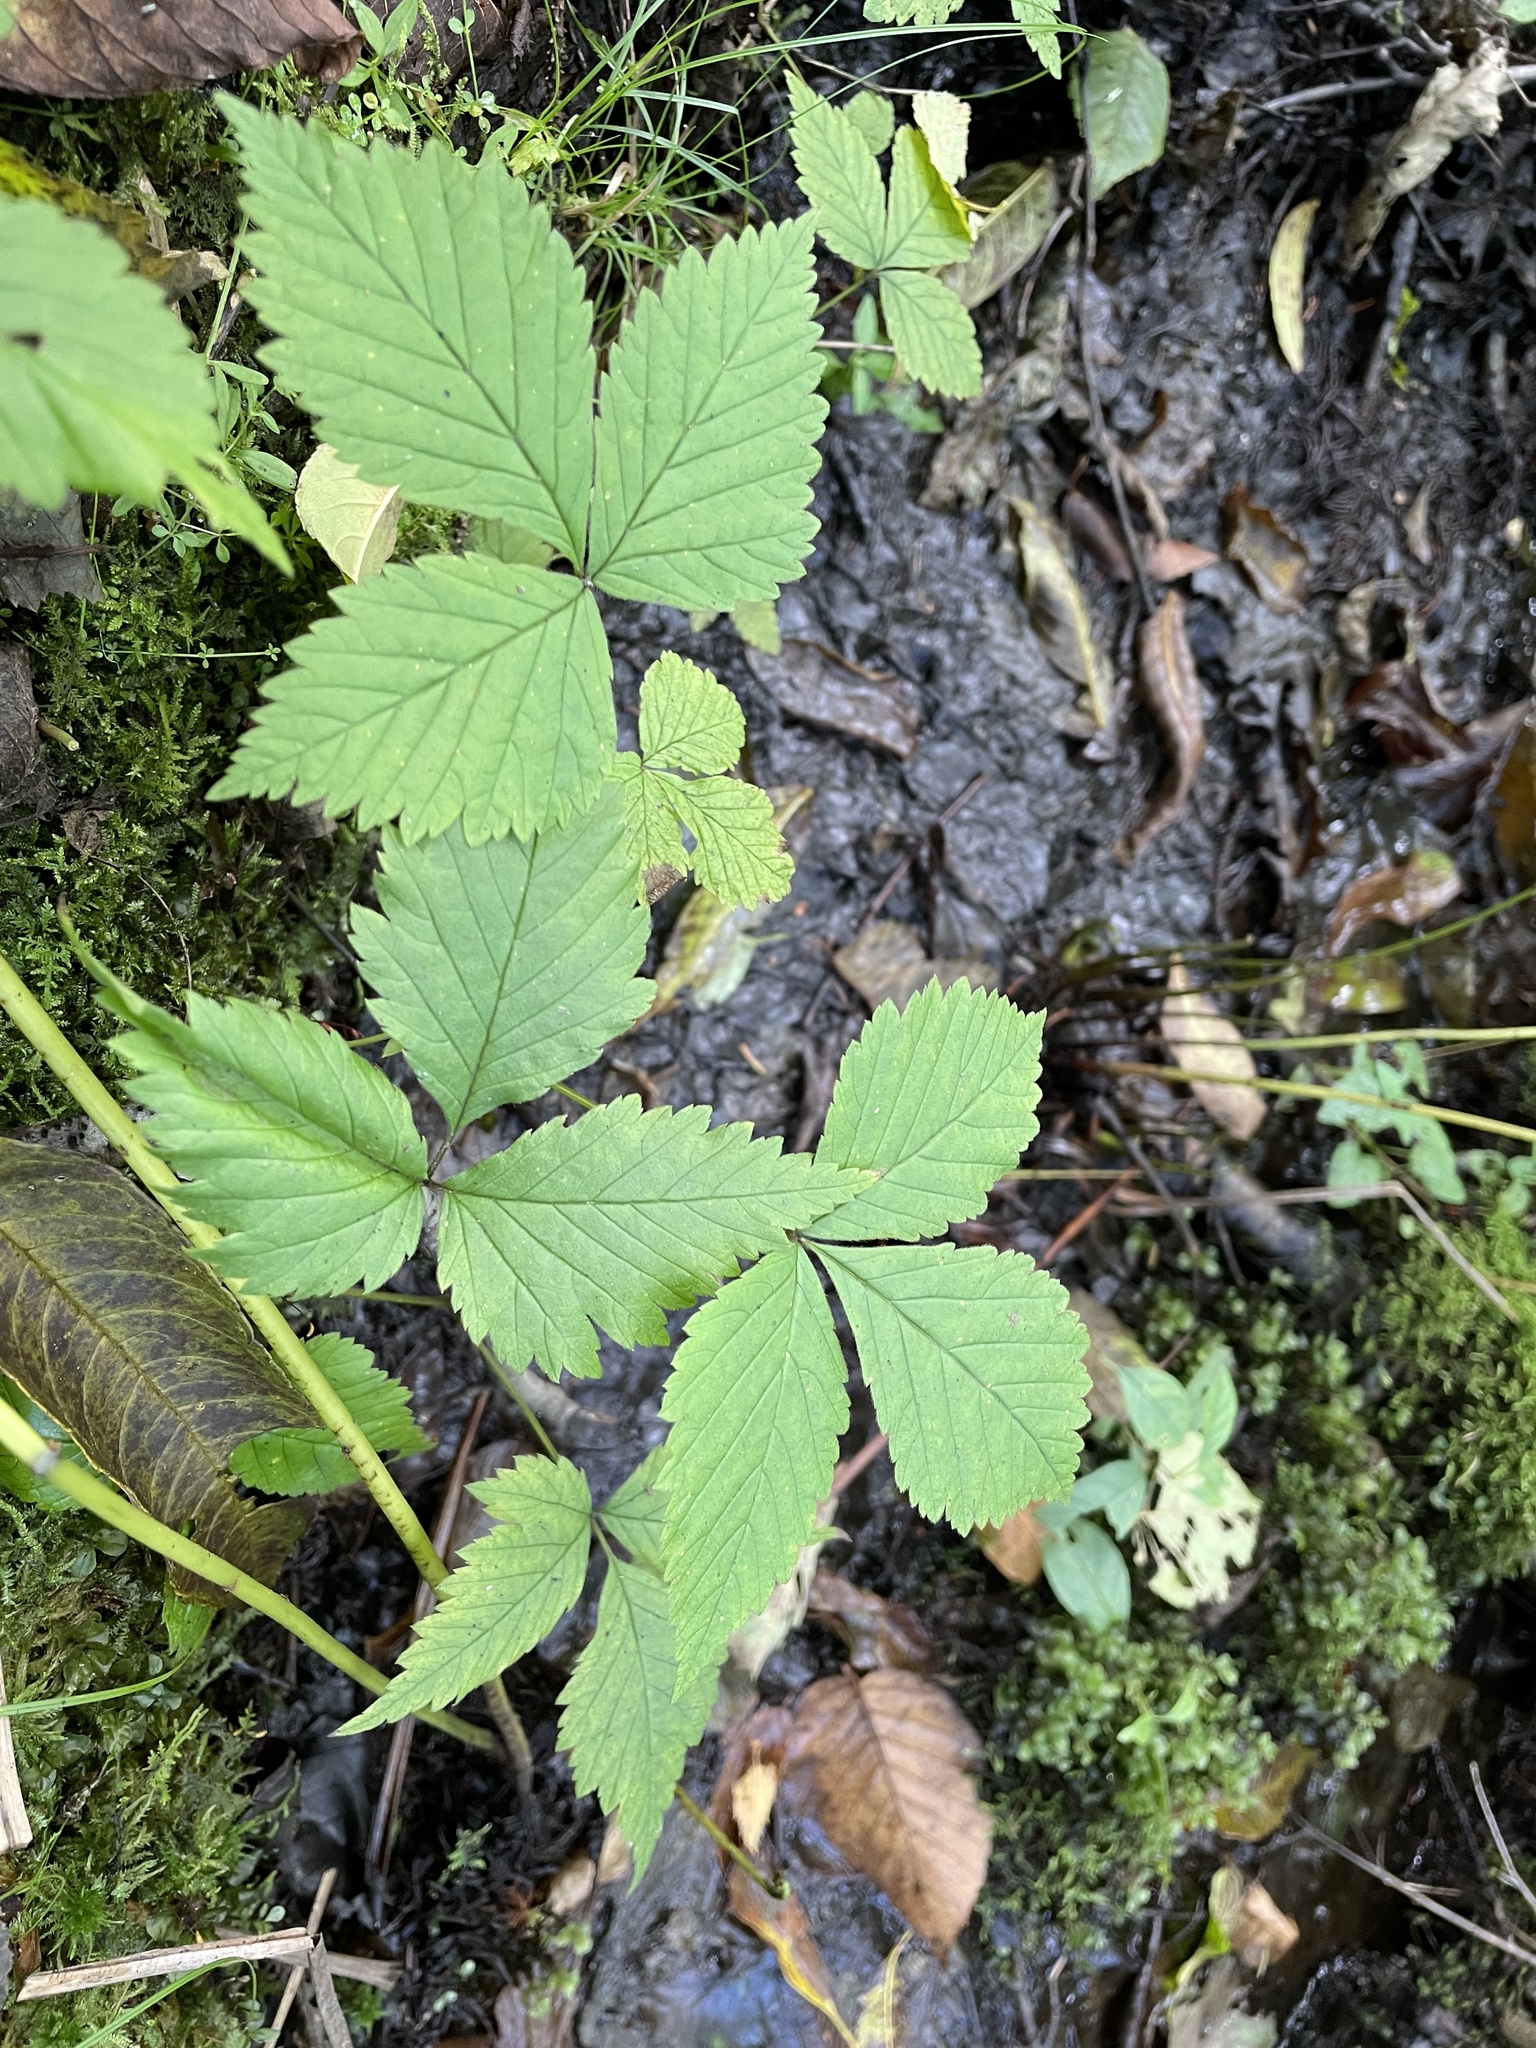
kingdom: Plantae
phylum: Tracheophyta
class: Magnoliopsida
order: Rosales
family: Rosaceae
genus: Rubus
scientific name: Rubus pubescens
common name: Dwarf raspberry
